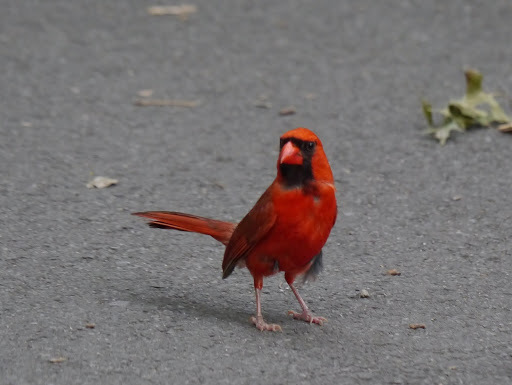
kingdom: Animalia
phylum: Chordata
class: Aves
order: Passeriformes
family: Cardinalidae
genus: Cardinalis
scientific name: Cardinalis cardinalis
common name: Northern cardinal
